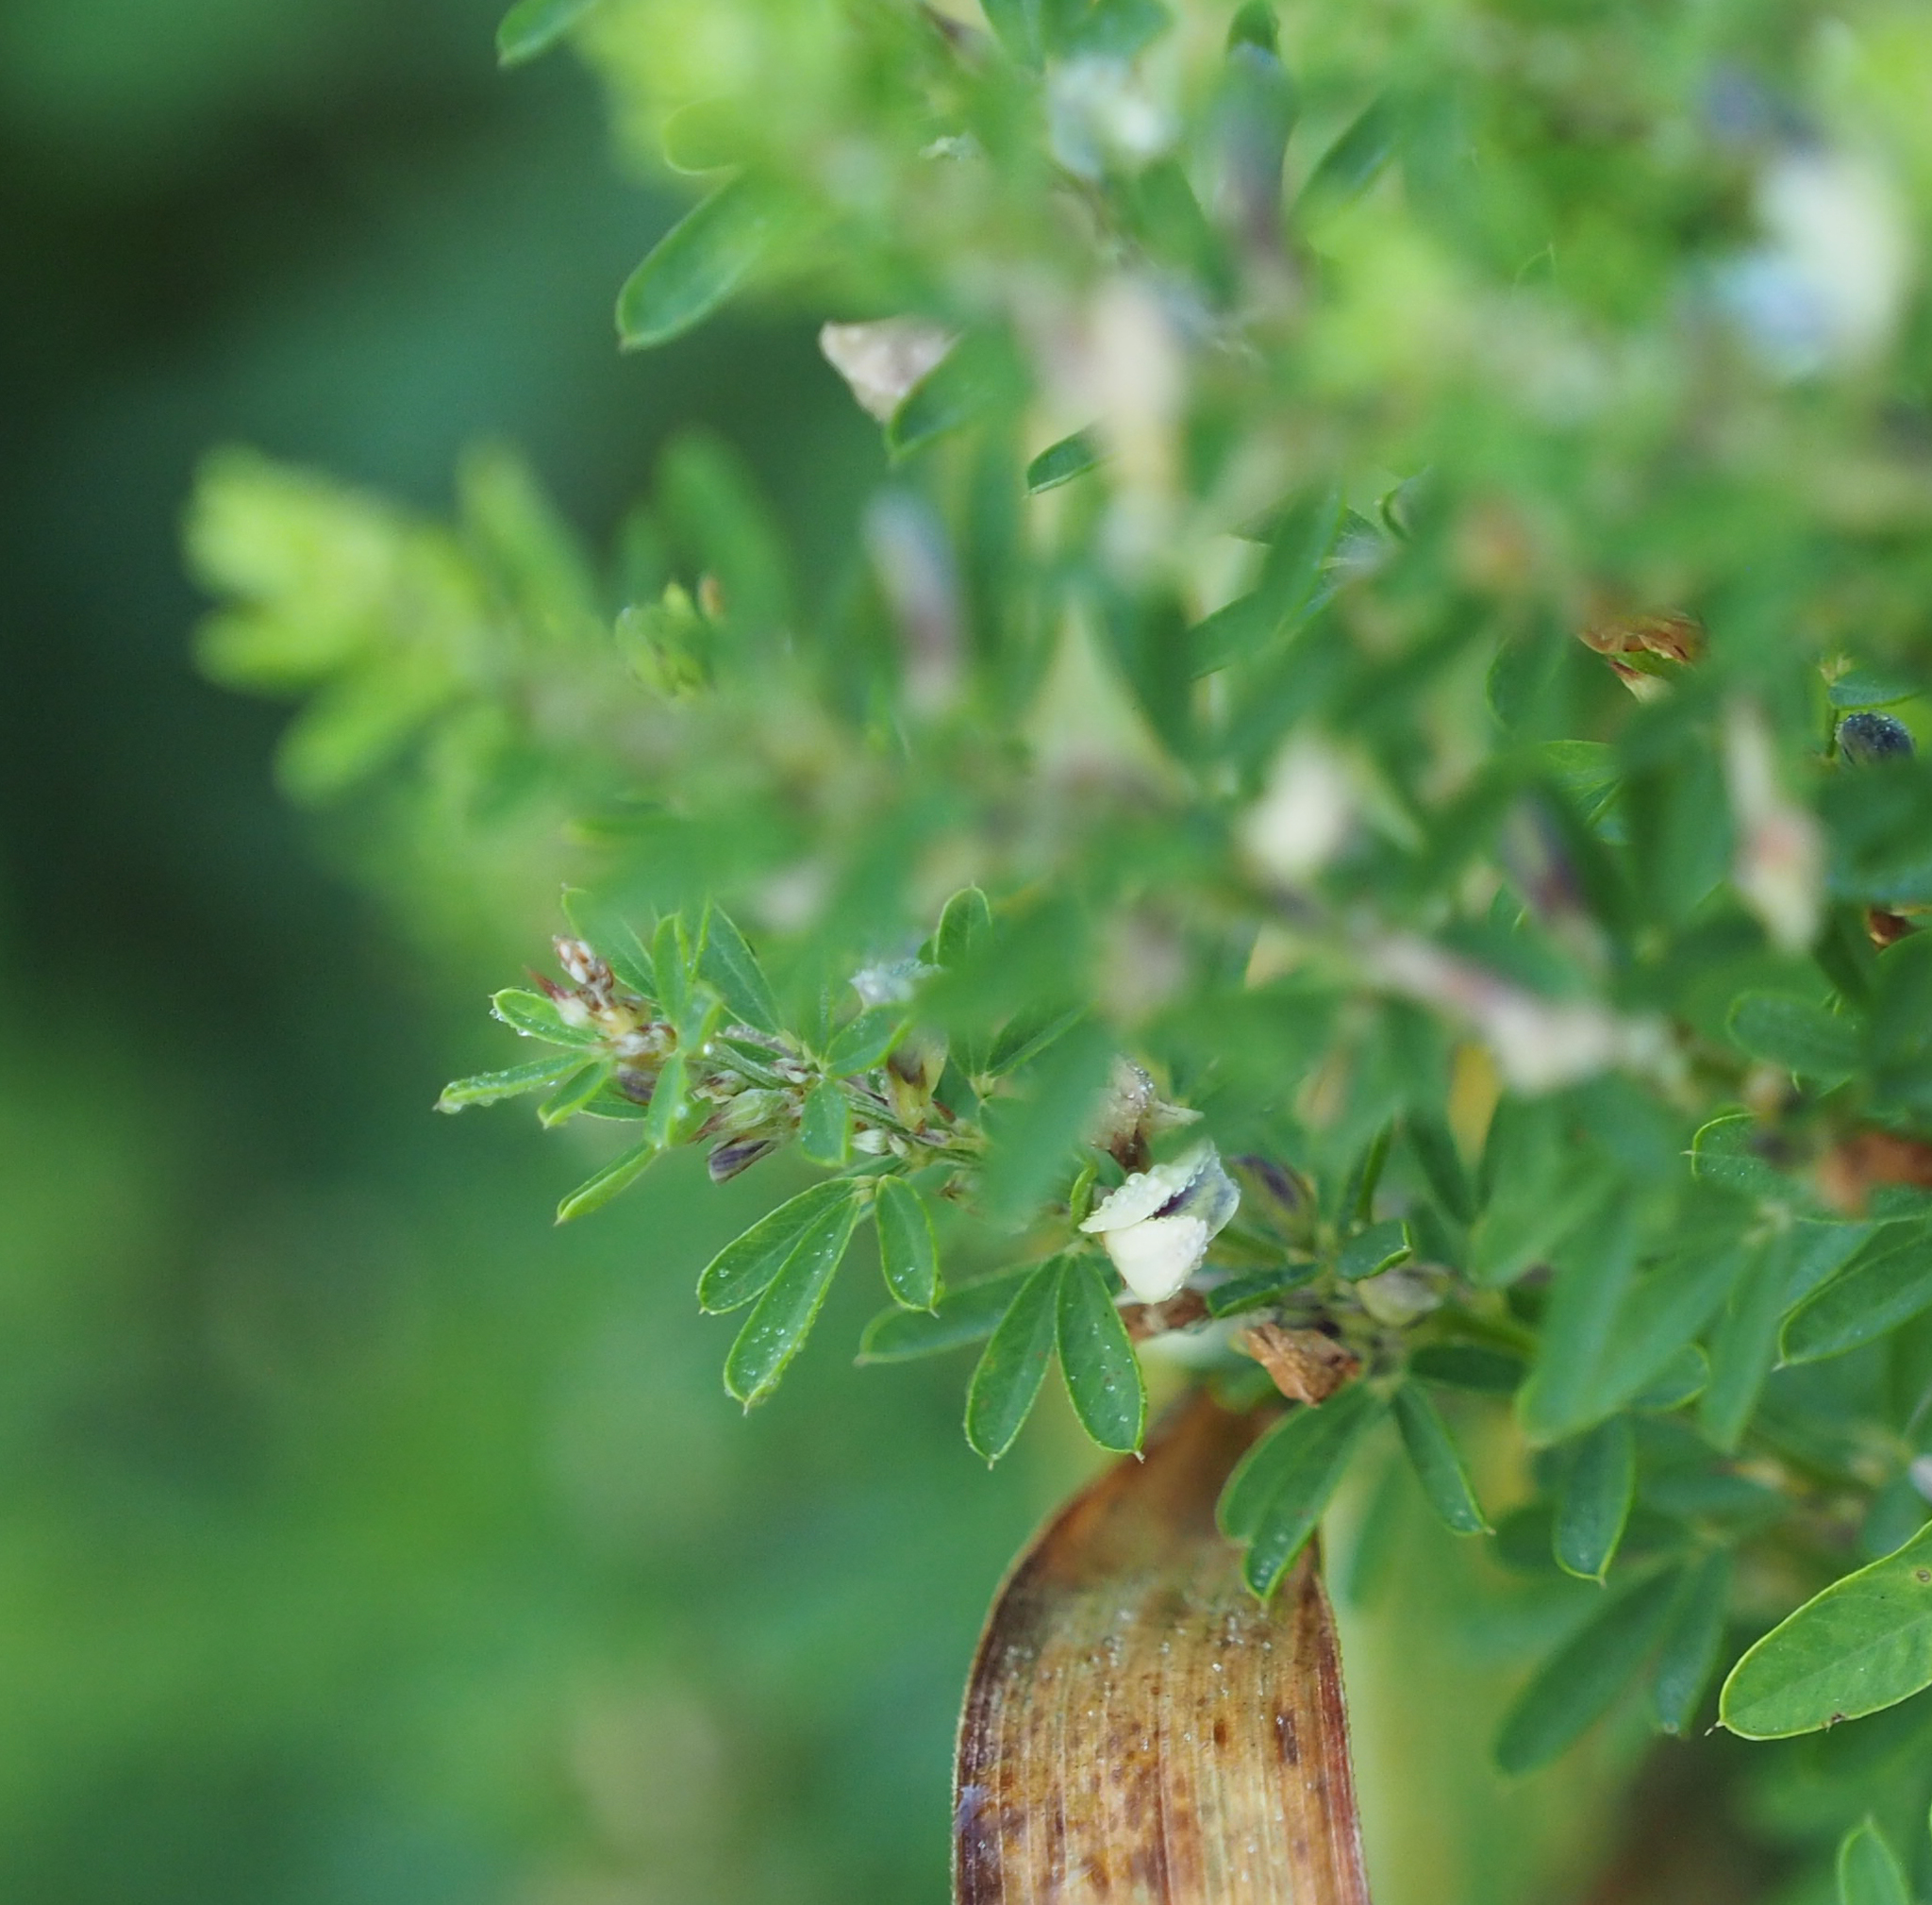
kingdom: Plantae
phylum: Tracheophyta
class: Magnoliopsida
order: Fabales
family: Fabaceae
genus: Lespedeza
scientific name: Lespedeza cuneata
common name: Chinese bush-clover
